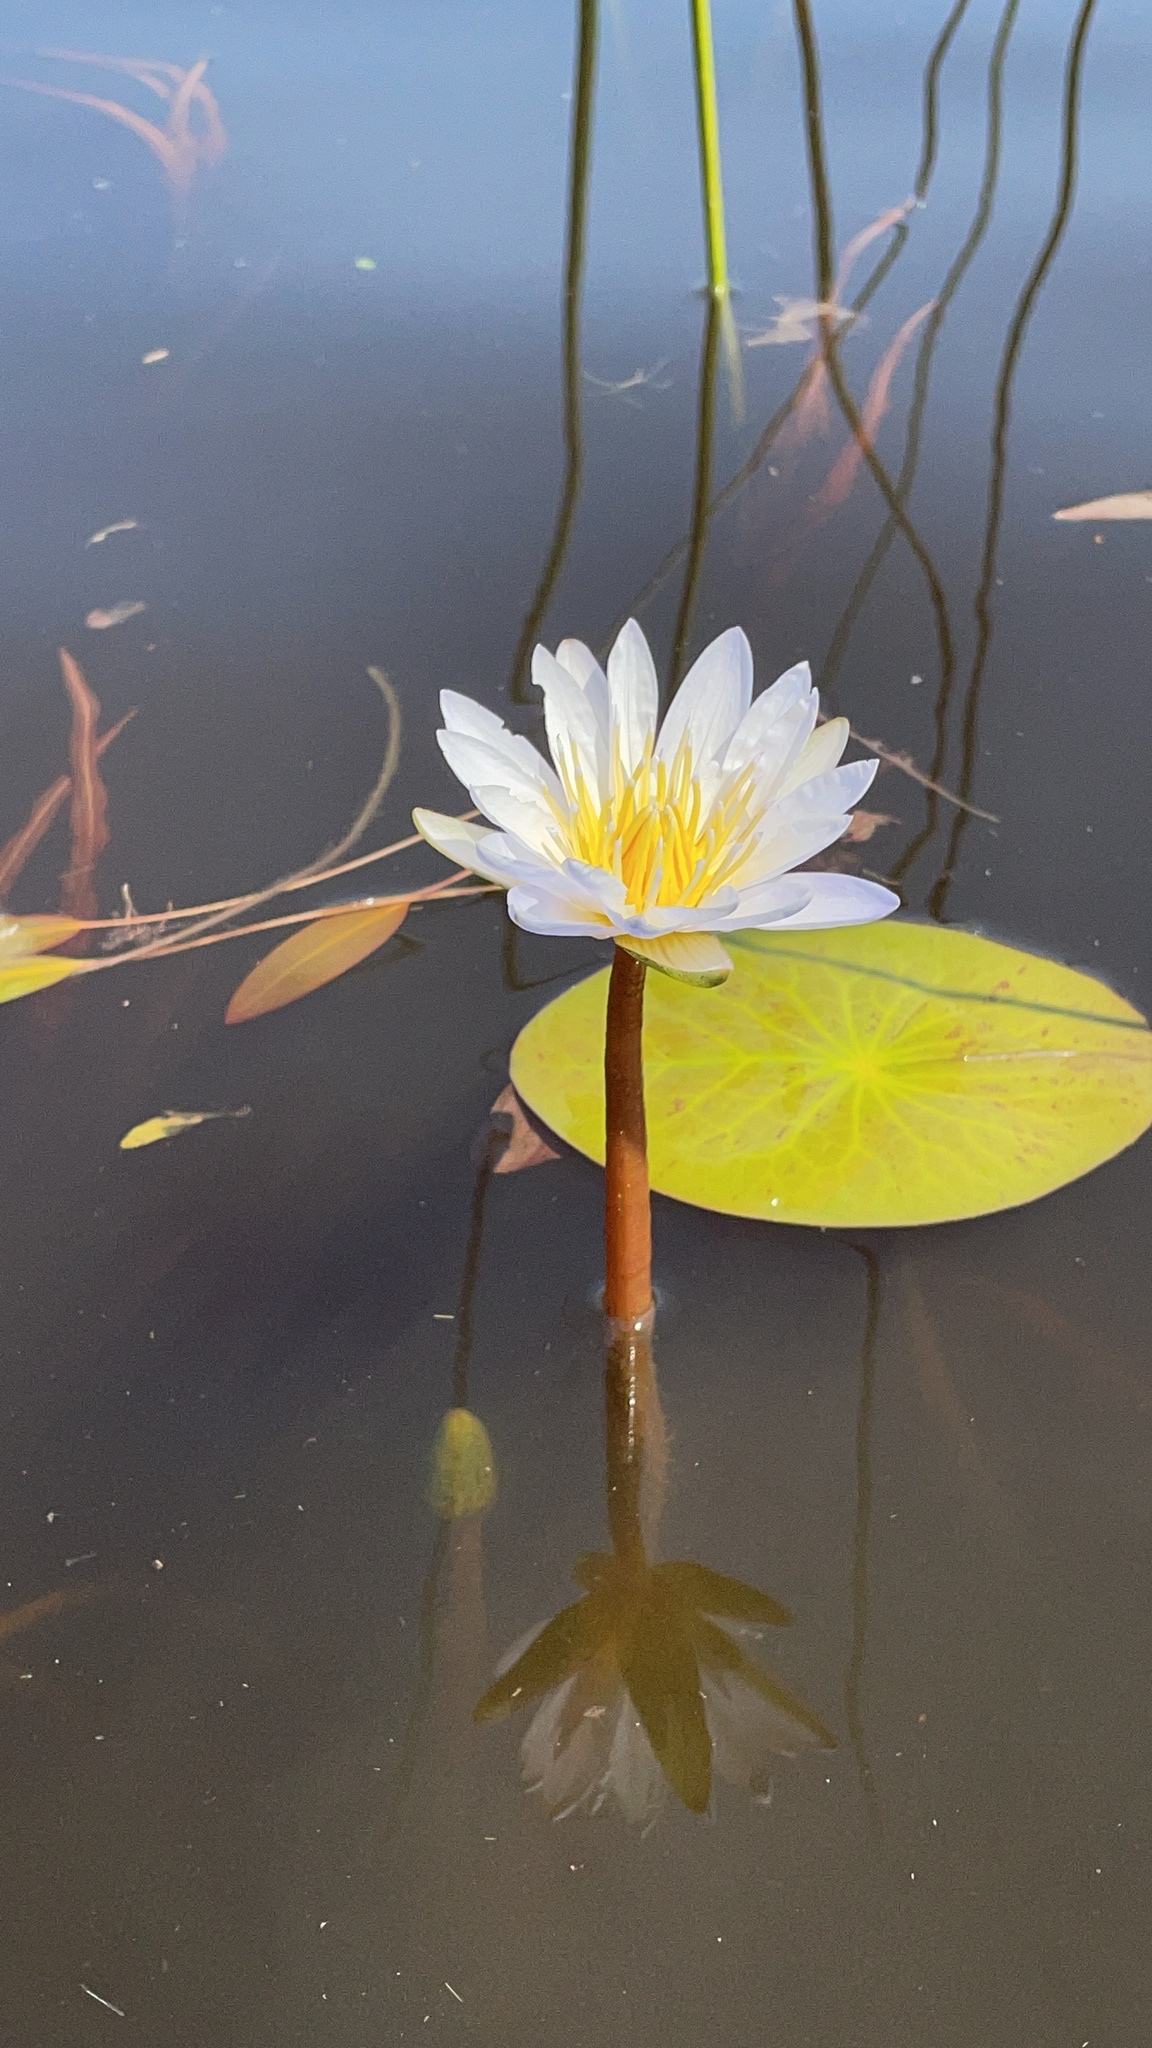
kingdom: Plantae
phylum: Tracheophyta
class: Magnoliopsida
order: Nymphaeales
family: Nymphaeaceae
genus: Nymphaea
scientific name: Nymphaea nouchali
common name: Blue lotus
